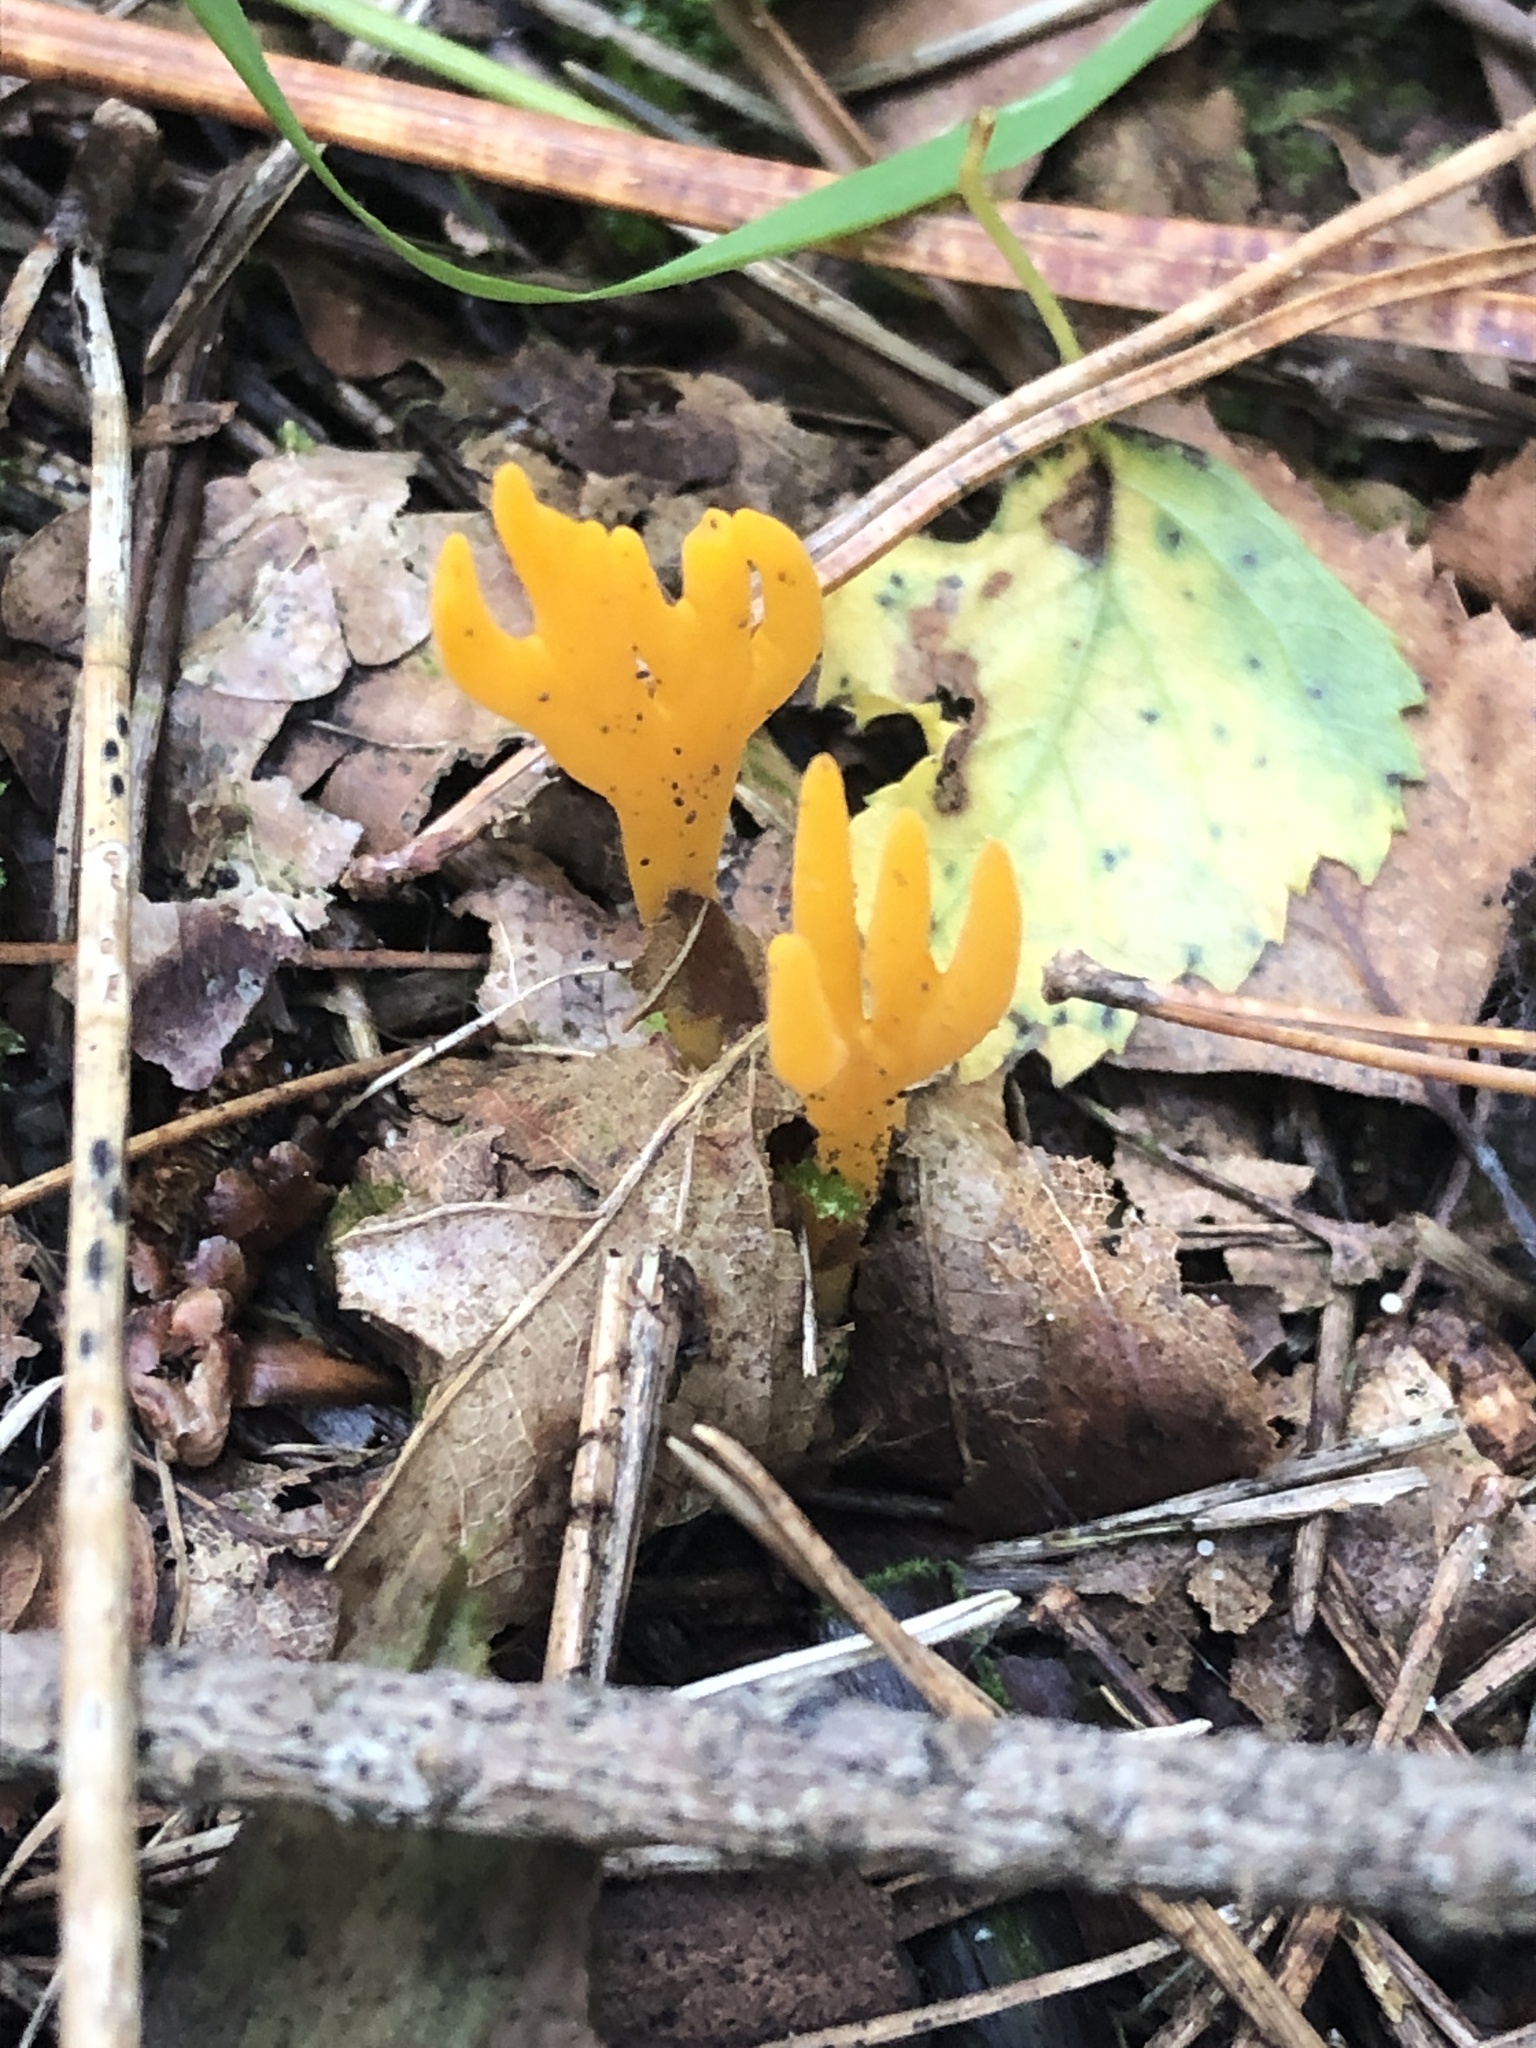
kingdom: Fungi
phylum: Basidiomycota
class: Dacrymycetes
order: Dacrymycetales
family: Dacrymycetaceae
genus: Calocera
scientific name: Calocera viscosa
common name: Yellow stagshorn
